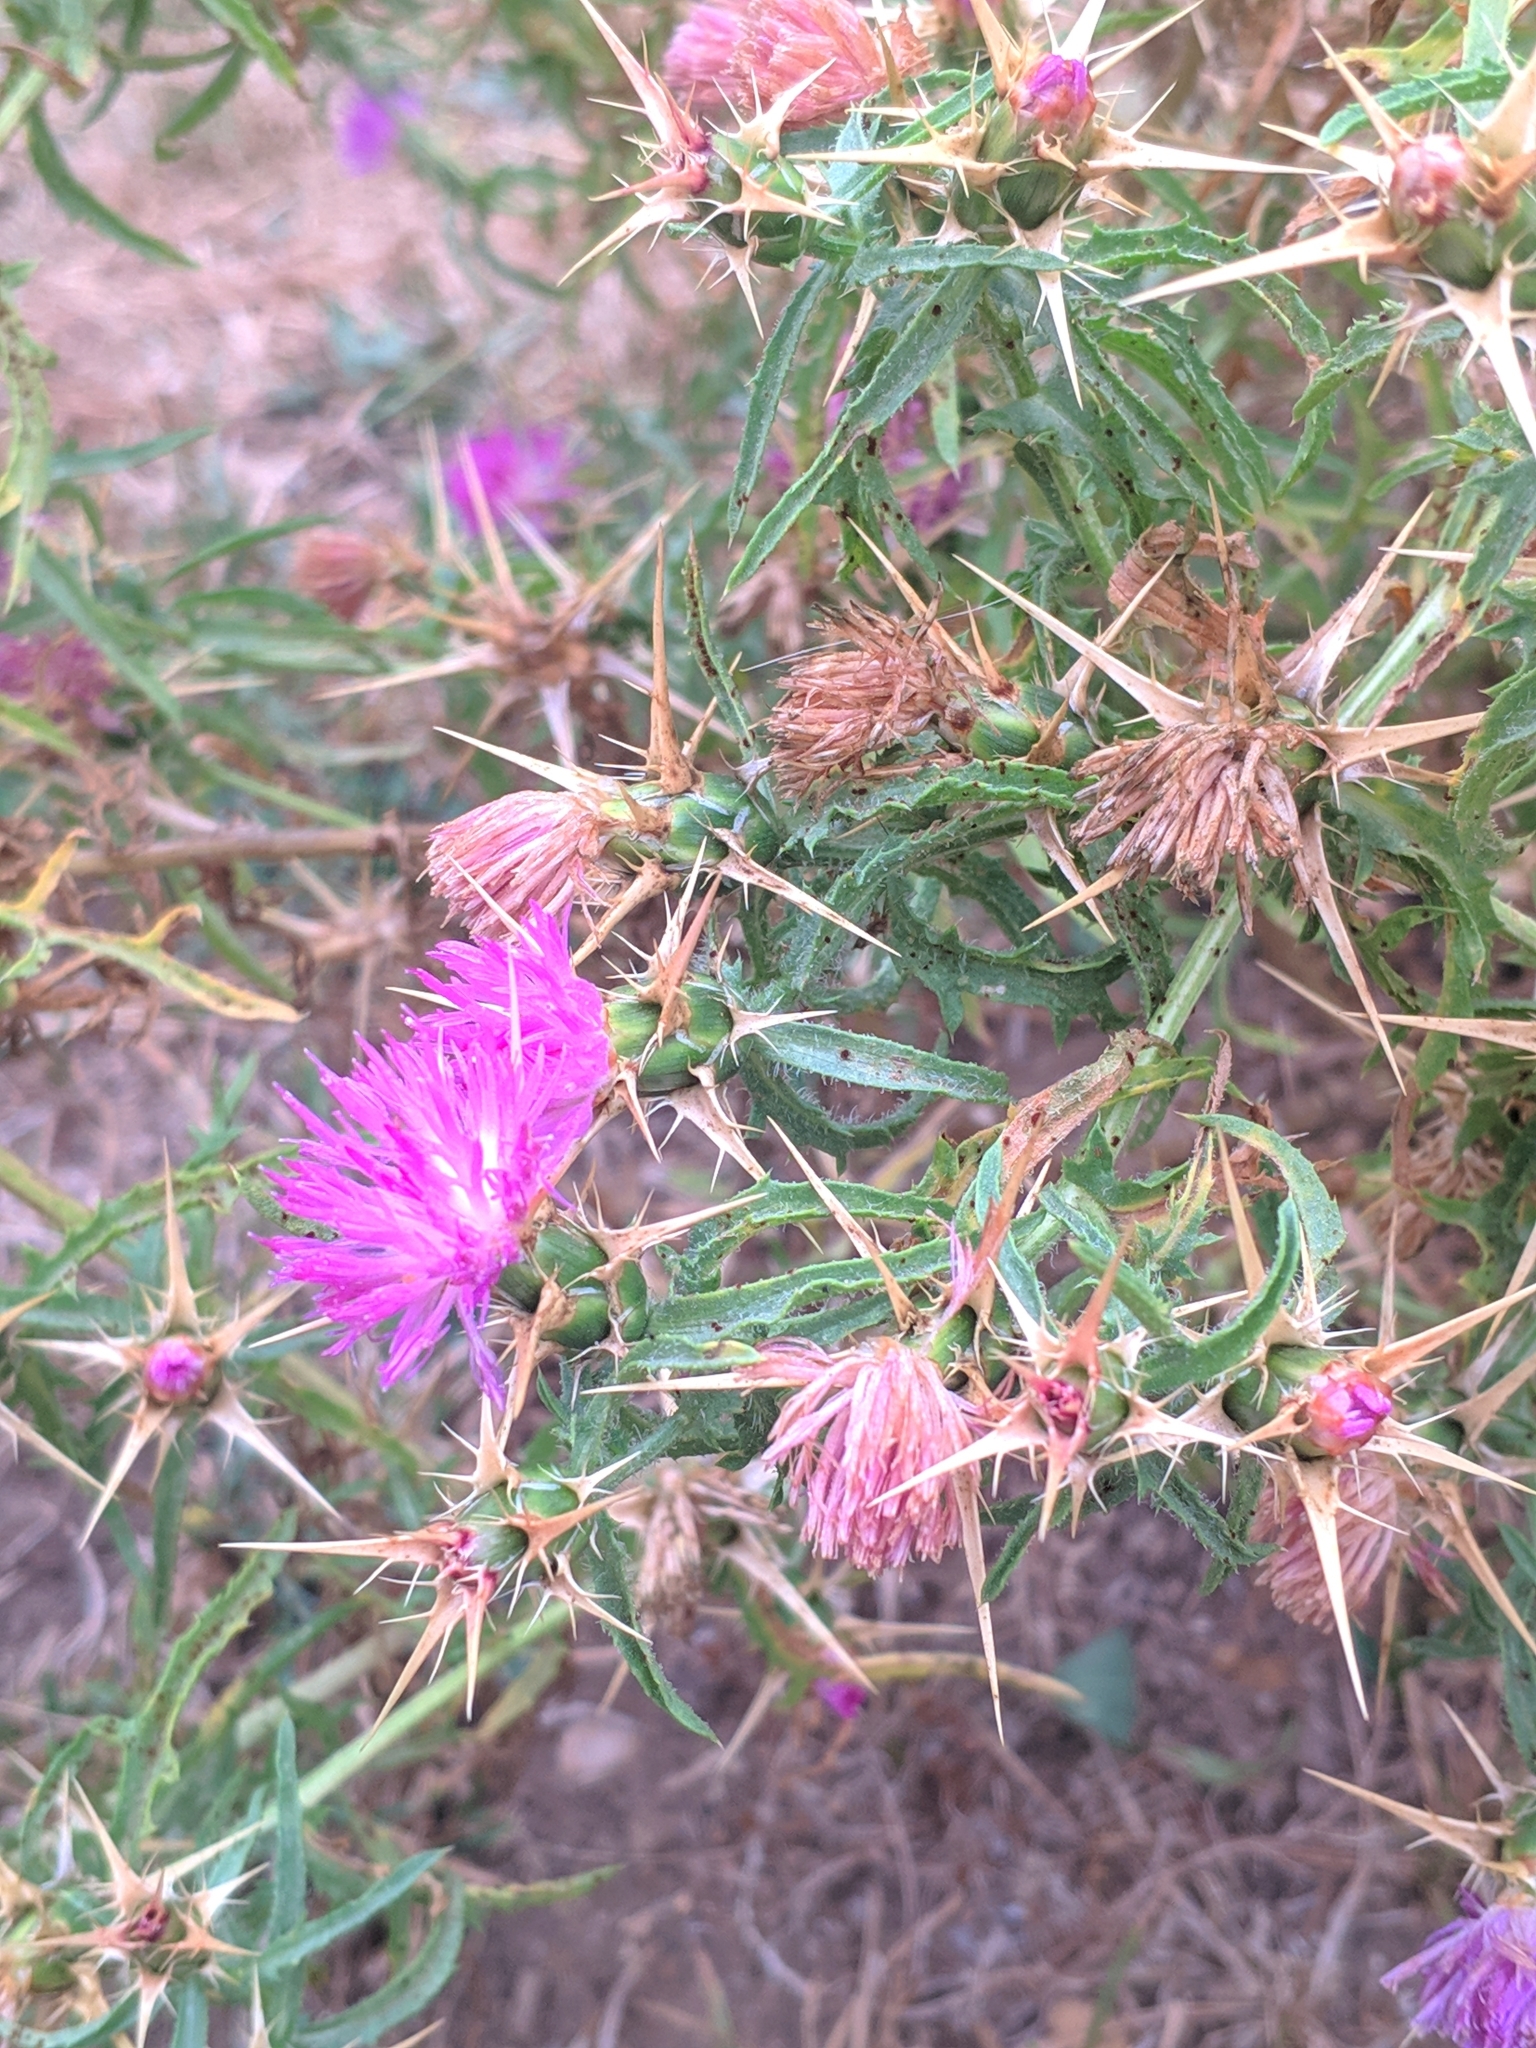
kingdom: Plantae
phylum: Tracheophyta
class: Magnoliopsida
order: Asterales
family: Asteraceae
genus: Centaurea
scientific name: Centaurea calcitrapa
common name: Red star-thistle
